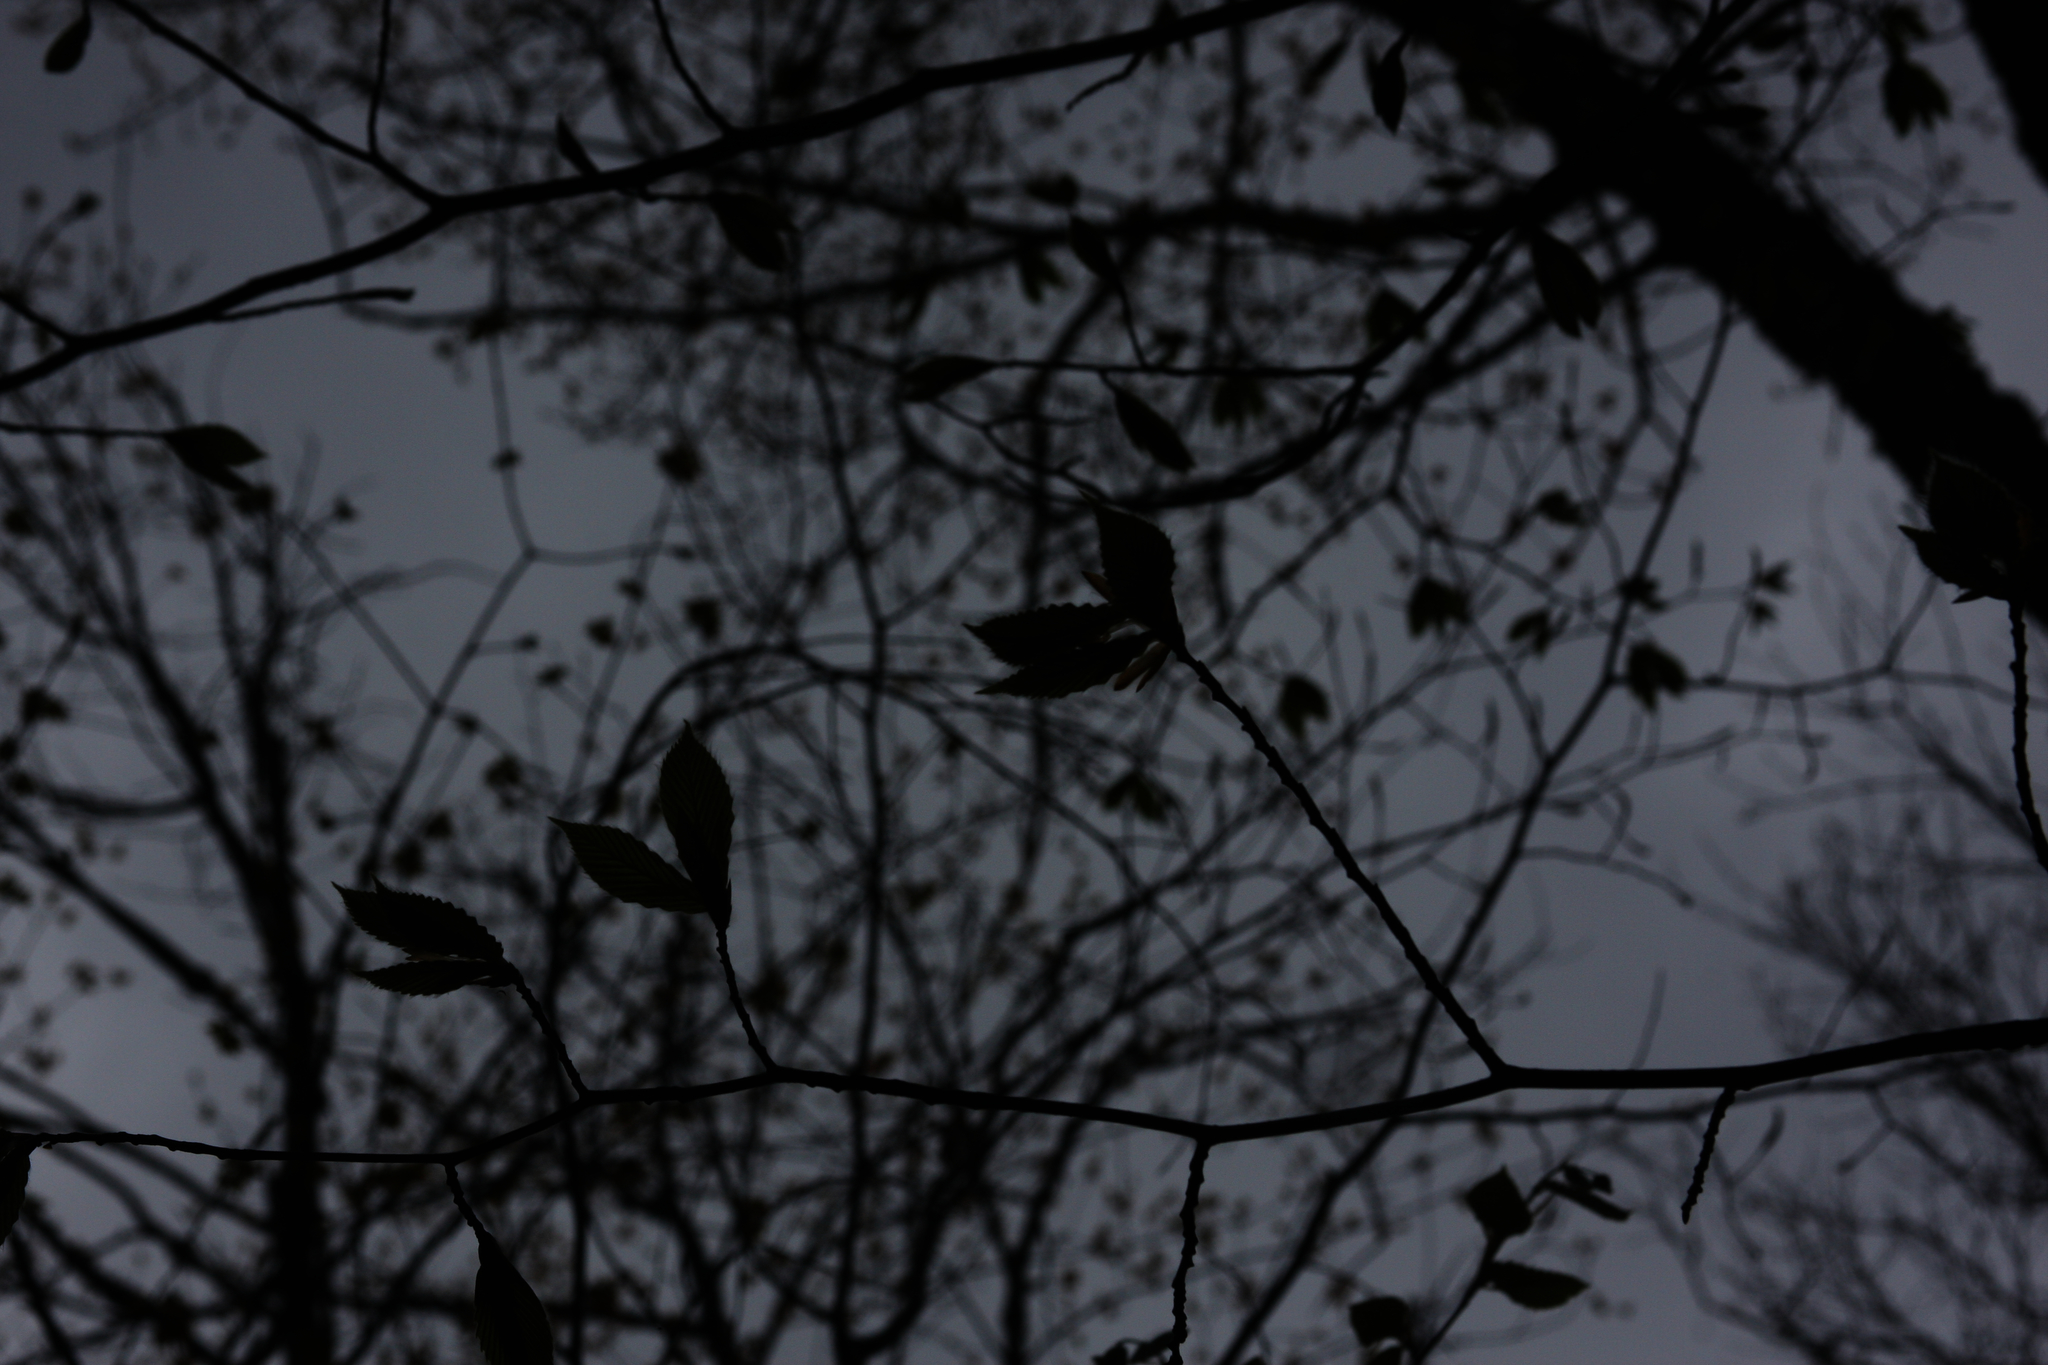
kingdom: Plantae
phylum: Tracheophyta
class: Magnoliopsida
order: Fagales
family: Fagaceae
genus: Fagus
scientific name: Fagus grandifolia
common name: American beech
